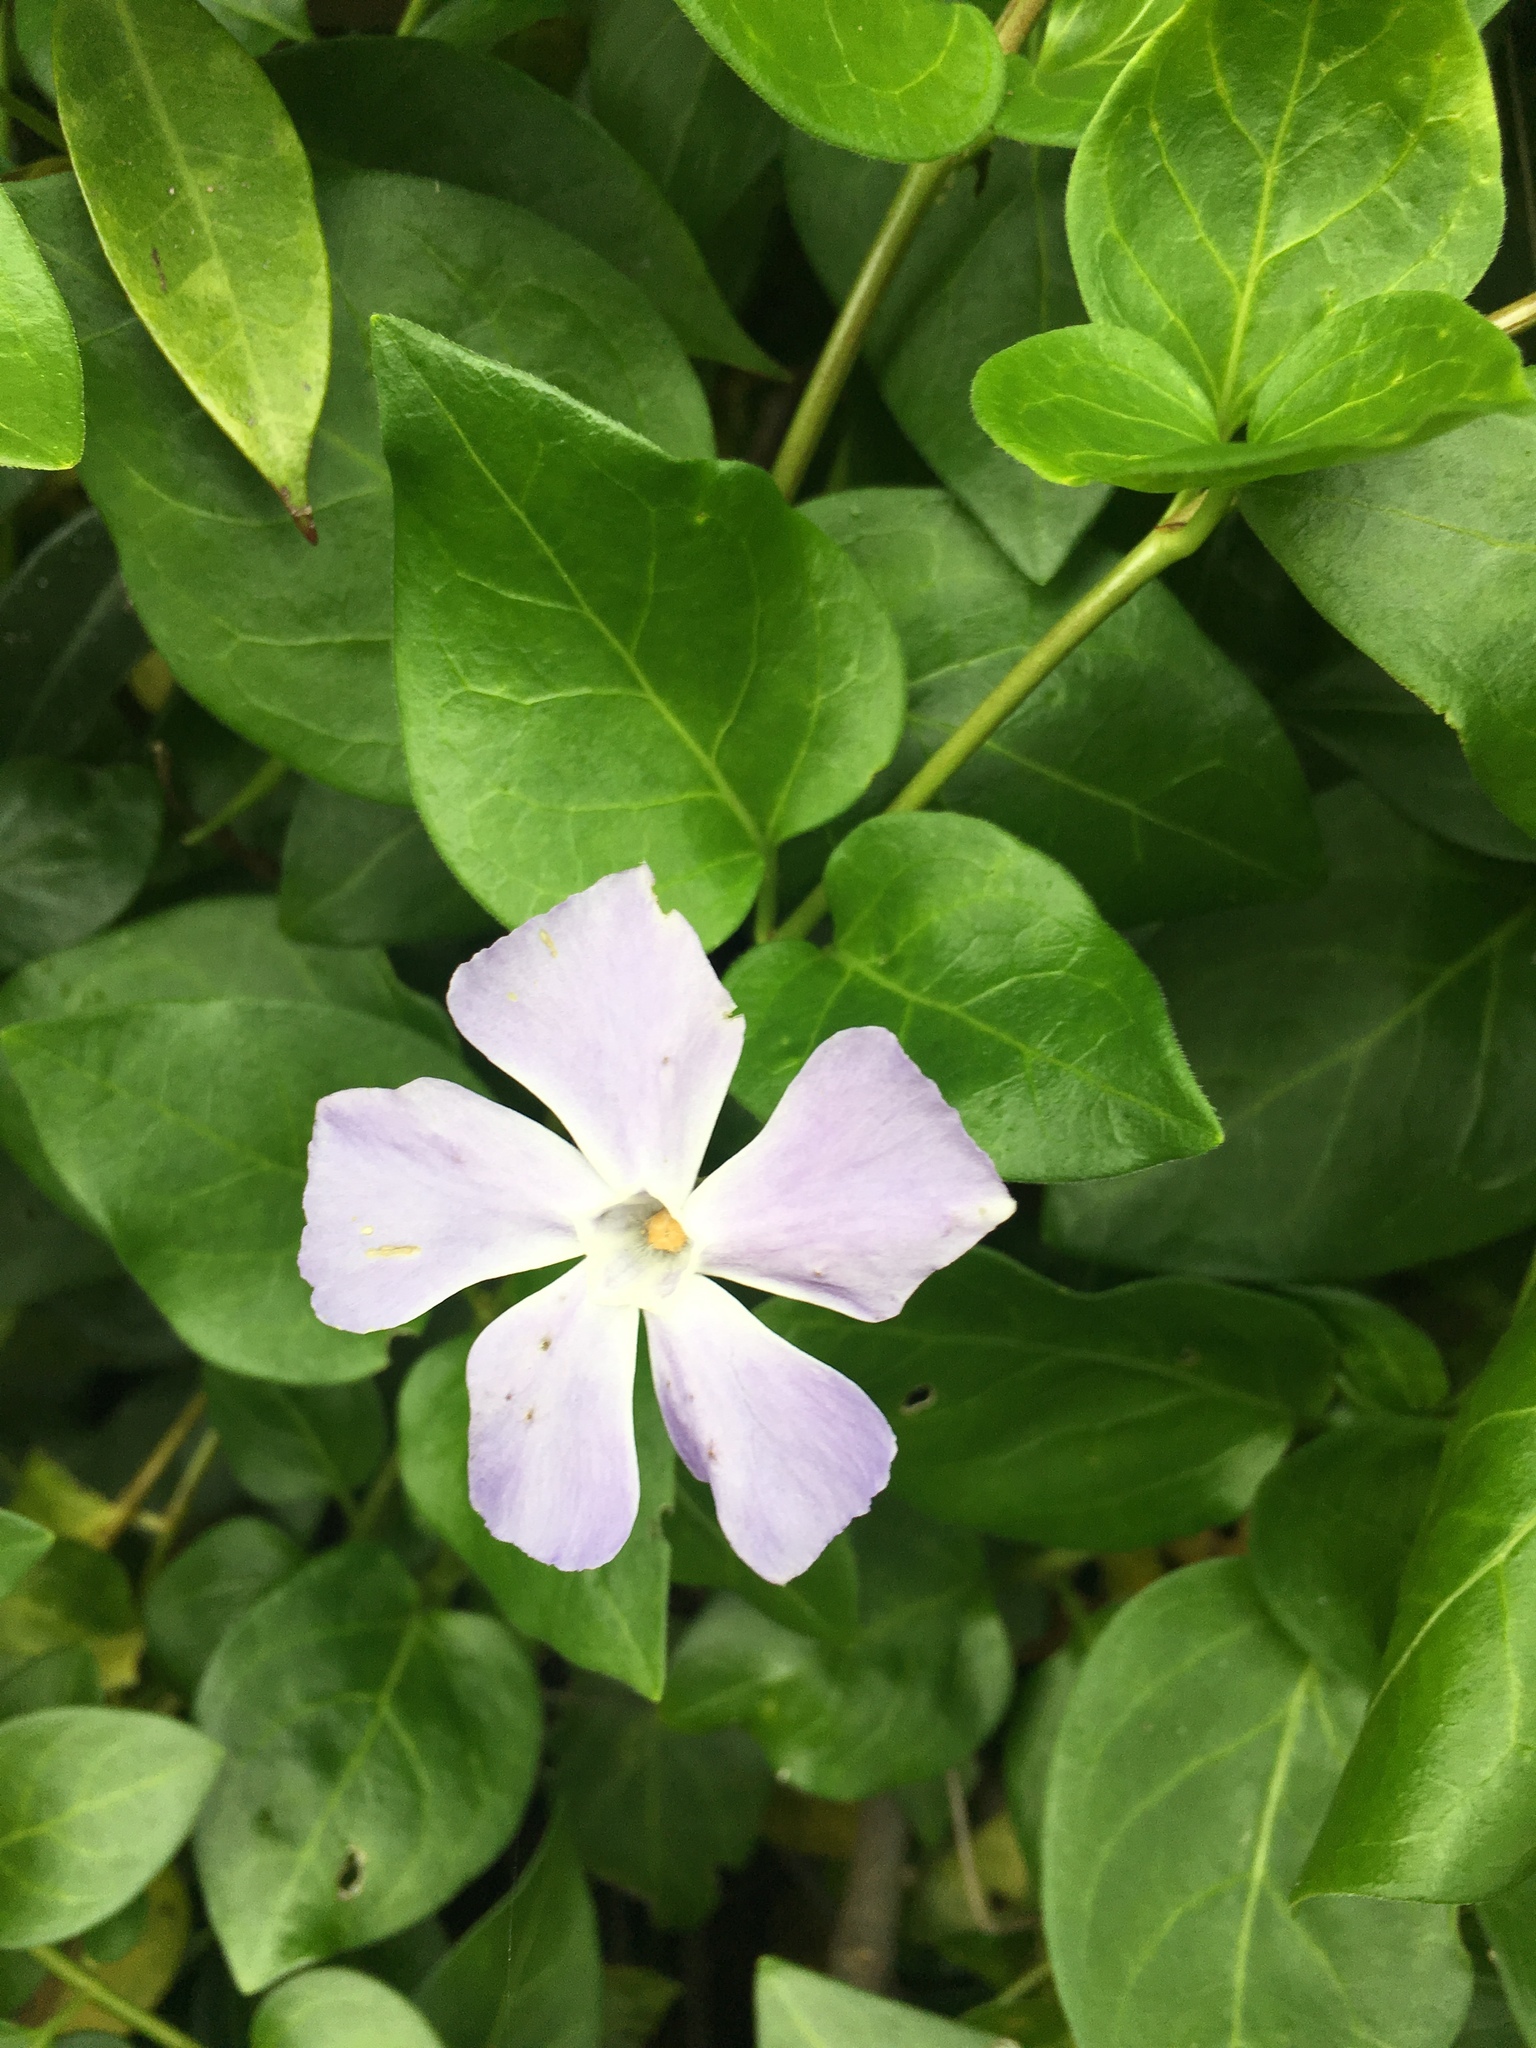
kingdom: Plantae
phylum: Tracheophyta
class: Magnoliopsida
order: Gentianales
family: Apocynaceae
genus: Vinca
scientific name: Vinca major
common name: Greater periwinkle
